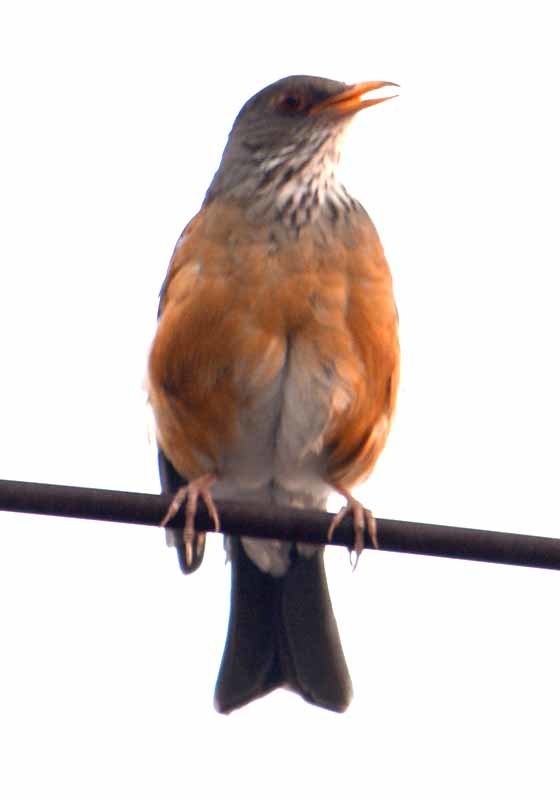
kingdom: Animalia
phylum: Chordata
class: Aves
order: Passeriformes
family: Turdidae
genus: Turdus
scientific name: Turdus rufopalliatus
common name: Rufous-backed robin
